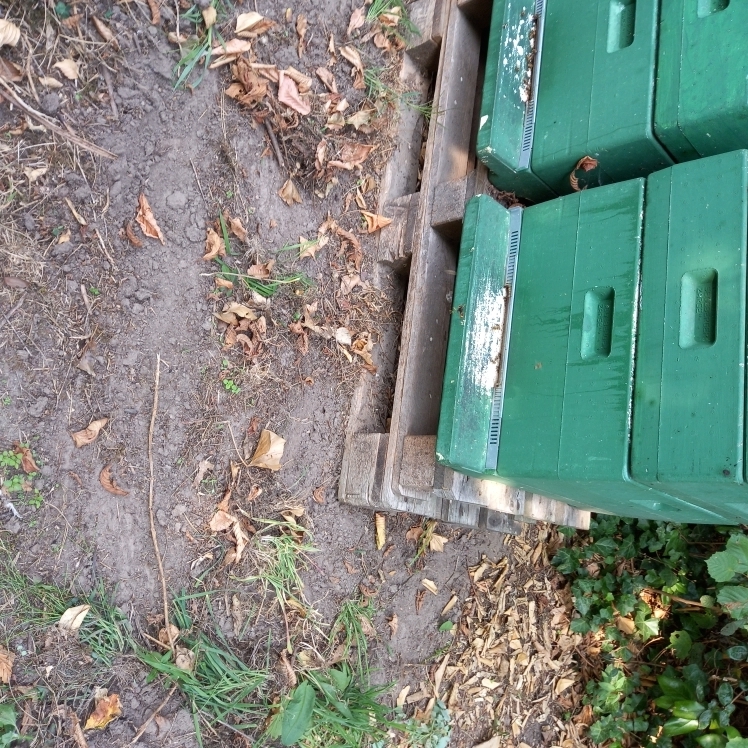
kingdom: Animalia
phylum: Arthropoda
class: Insecta
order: Hymenoptera
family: Vespidae
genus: Vespa
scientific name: Vespa velutina
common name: Asian hornet
